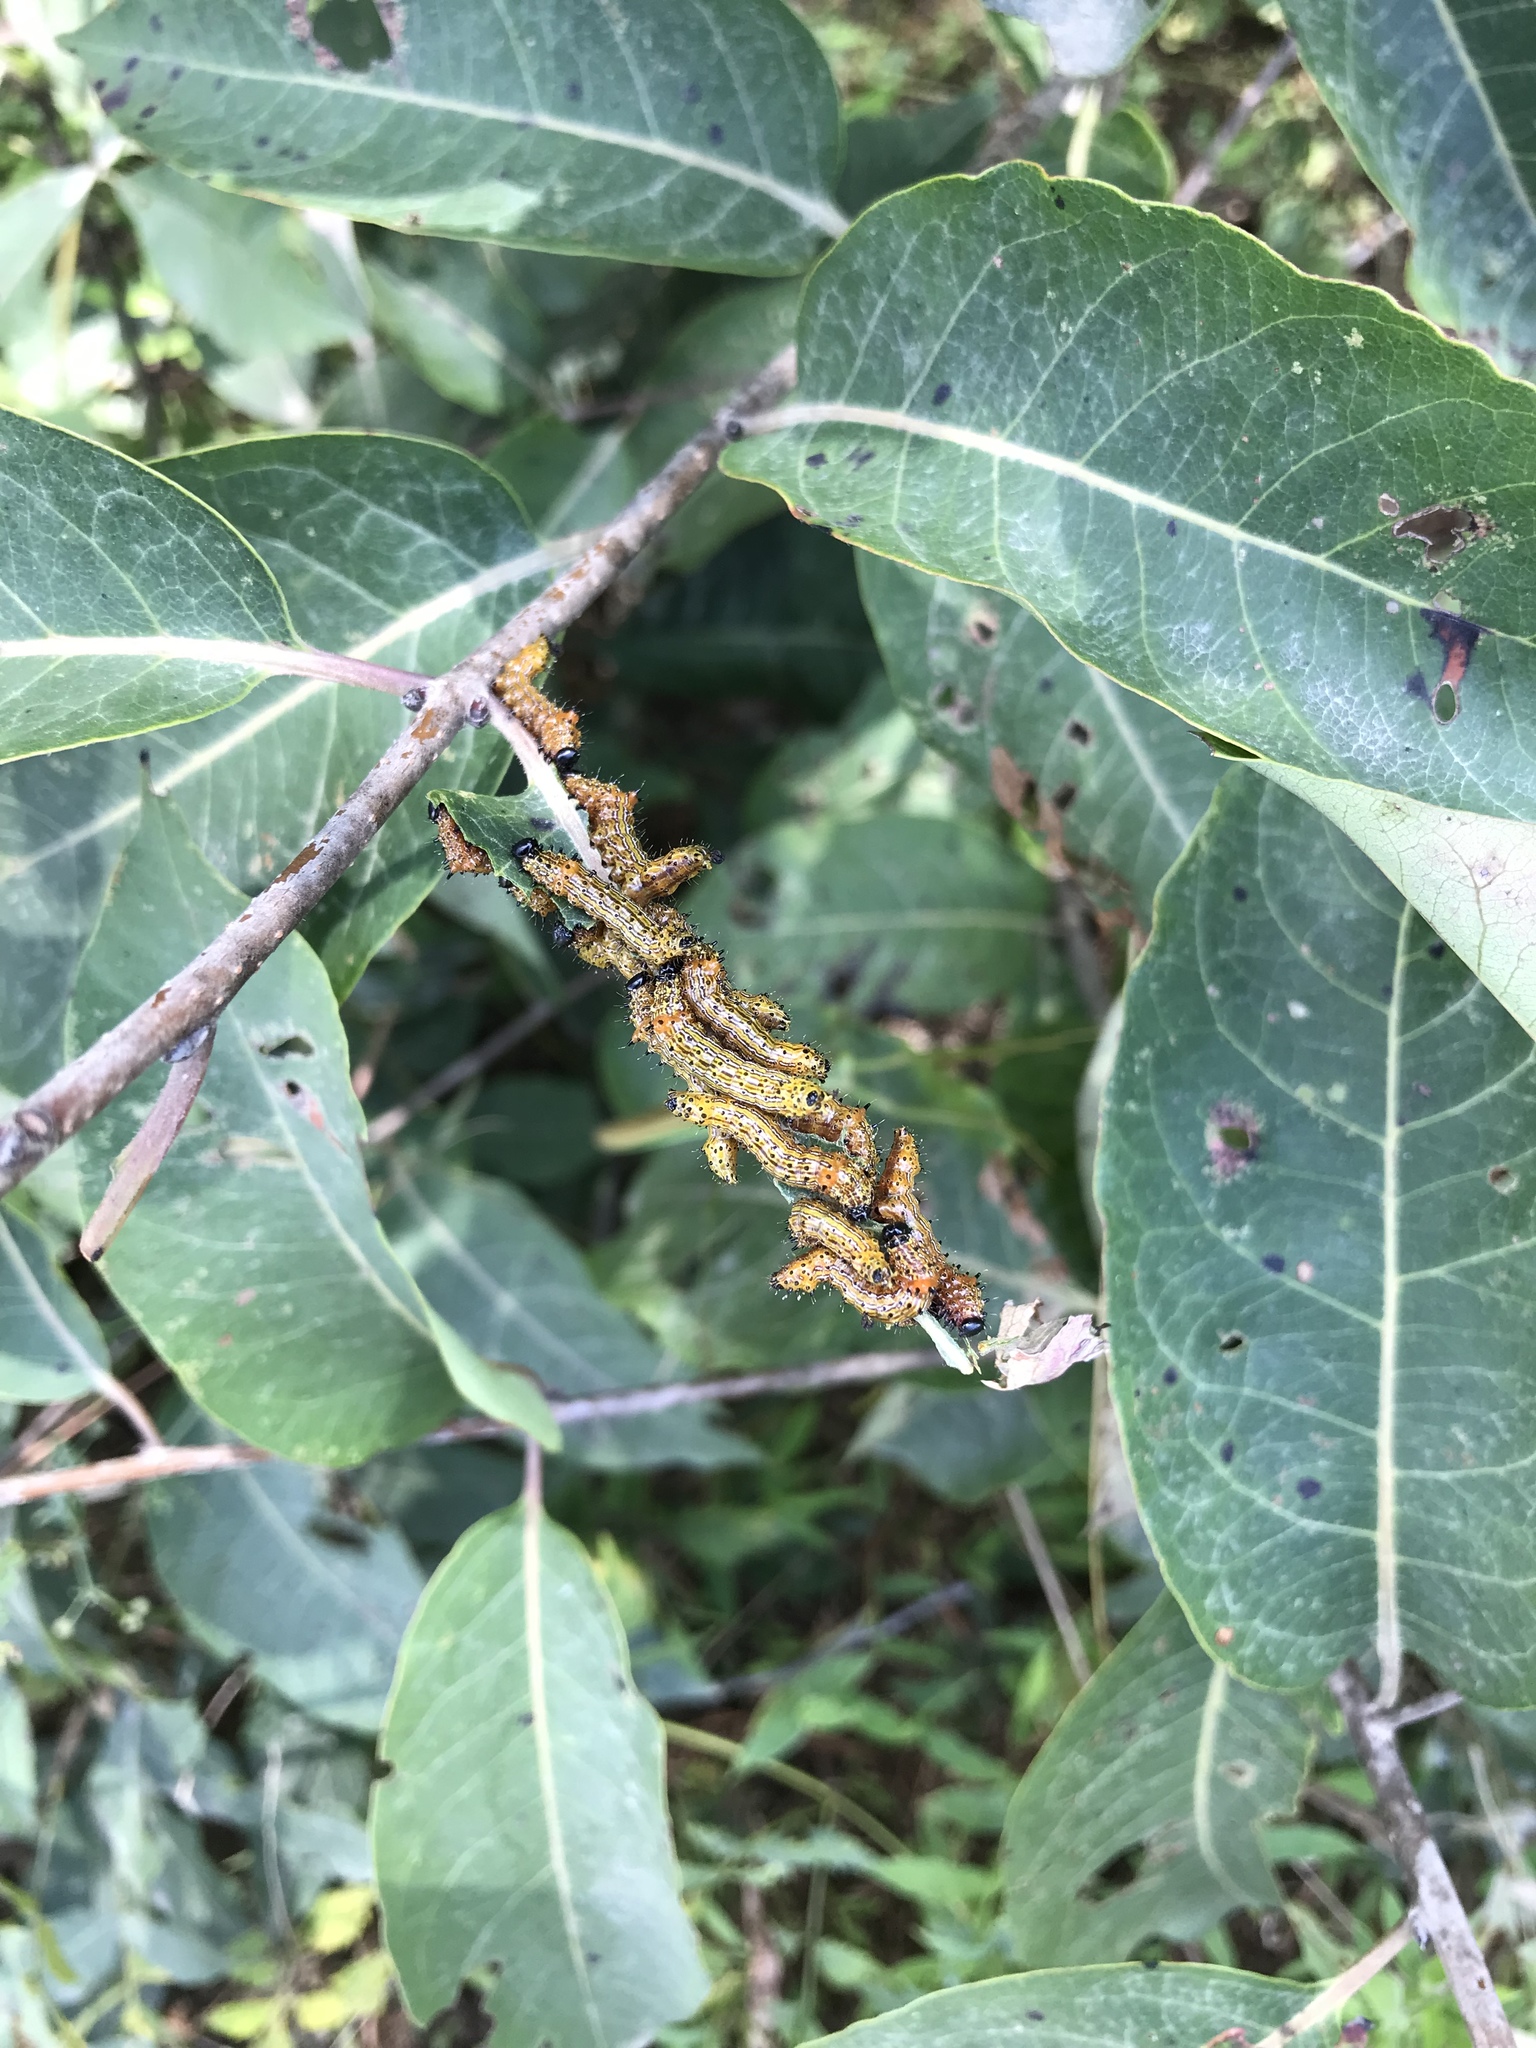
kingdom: Animalia
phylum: Arthropoda
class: Insecta
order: Lepidoptera
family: Notodontidae
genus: Schizura
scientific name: Schizura
